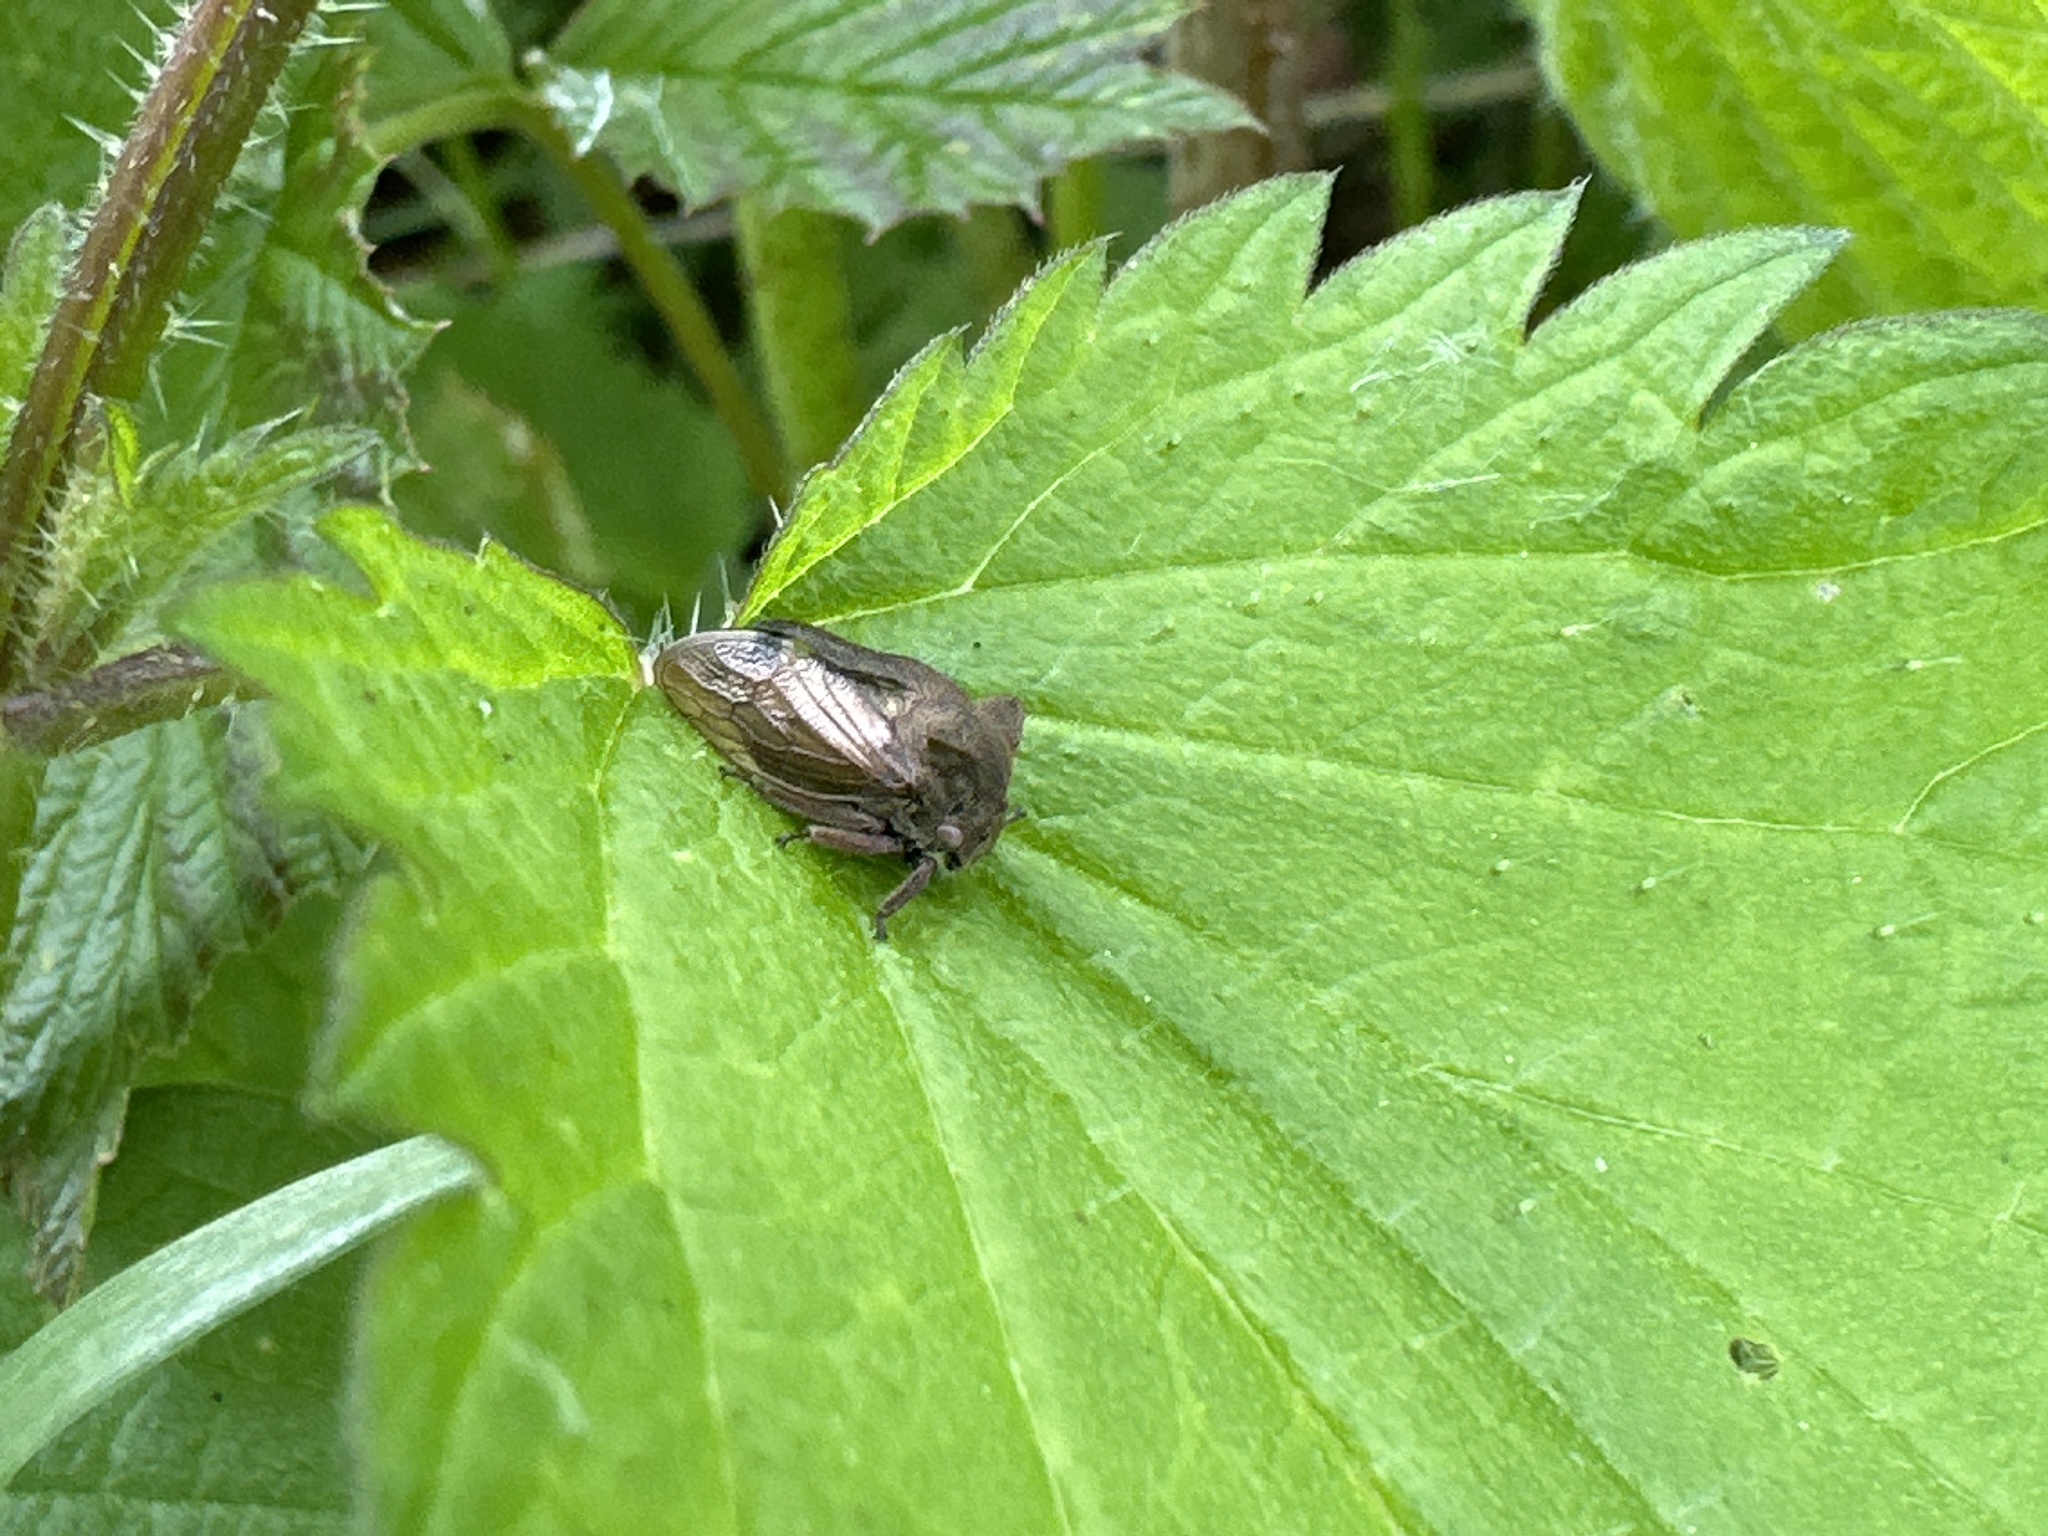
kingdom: Animalia
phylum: Arthropoda
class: Insecta
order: Hemiptera
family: Membracidae
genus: Centrotus
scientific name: Centrotus cornuta
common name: Treehopper
